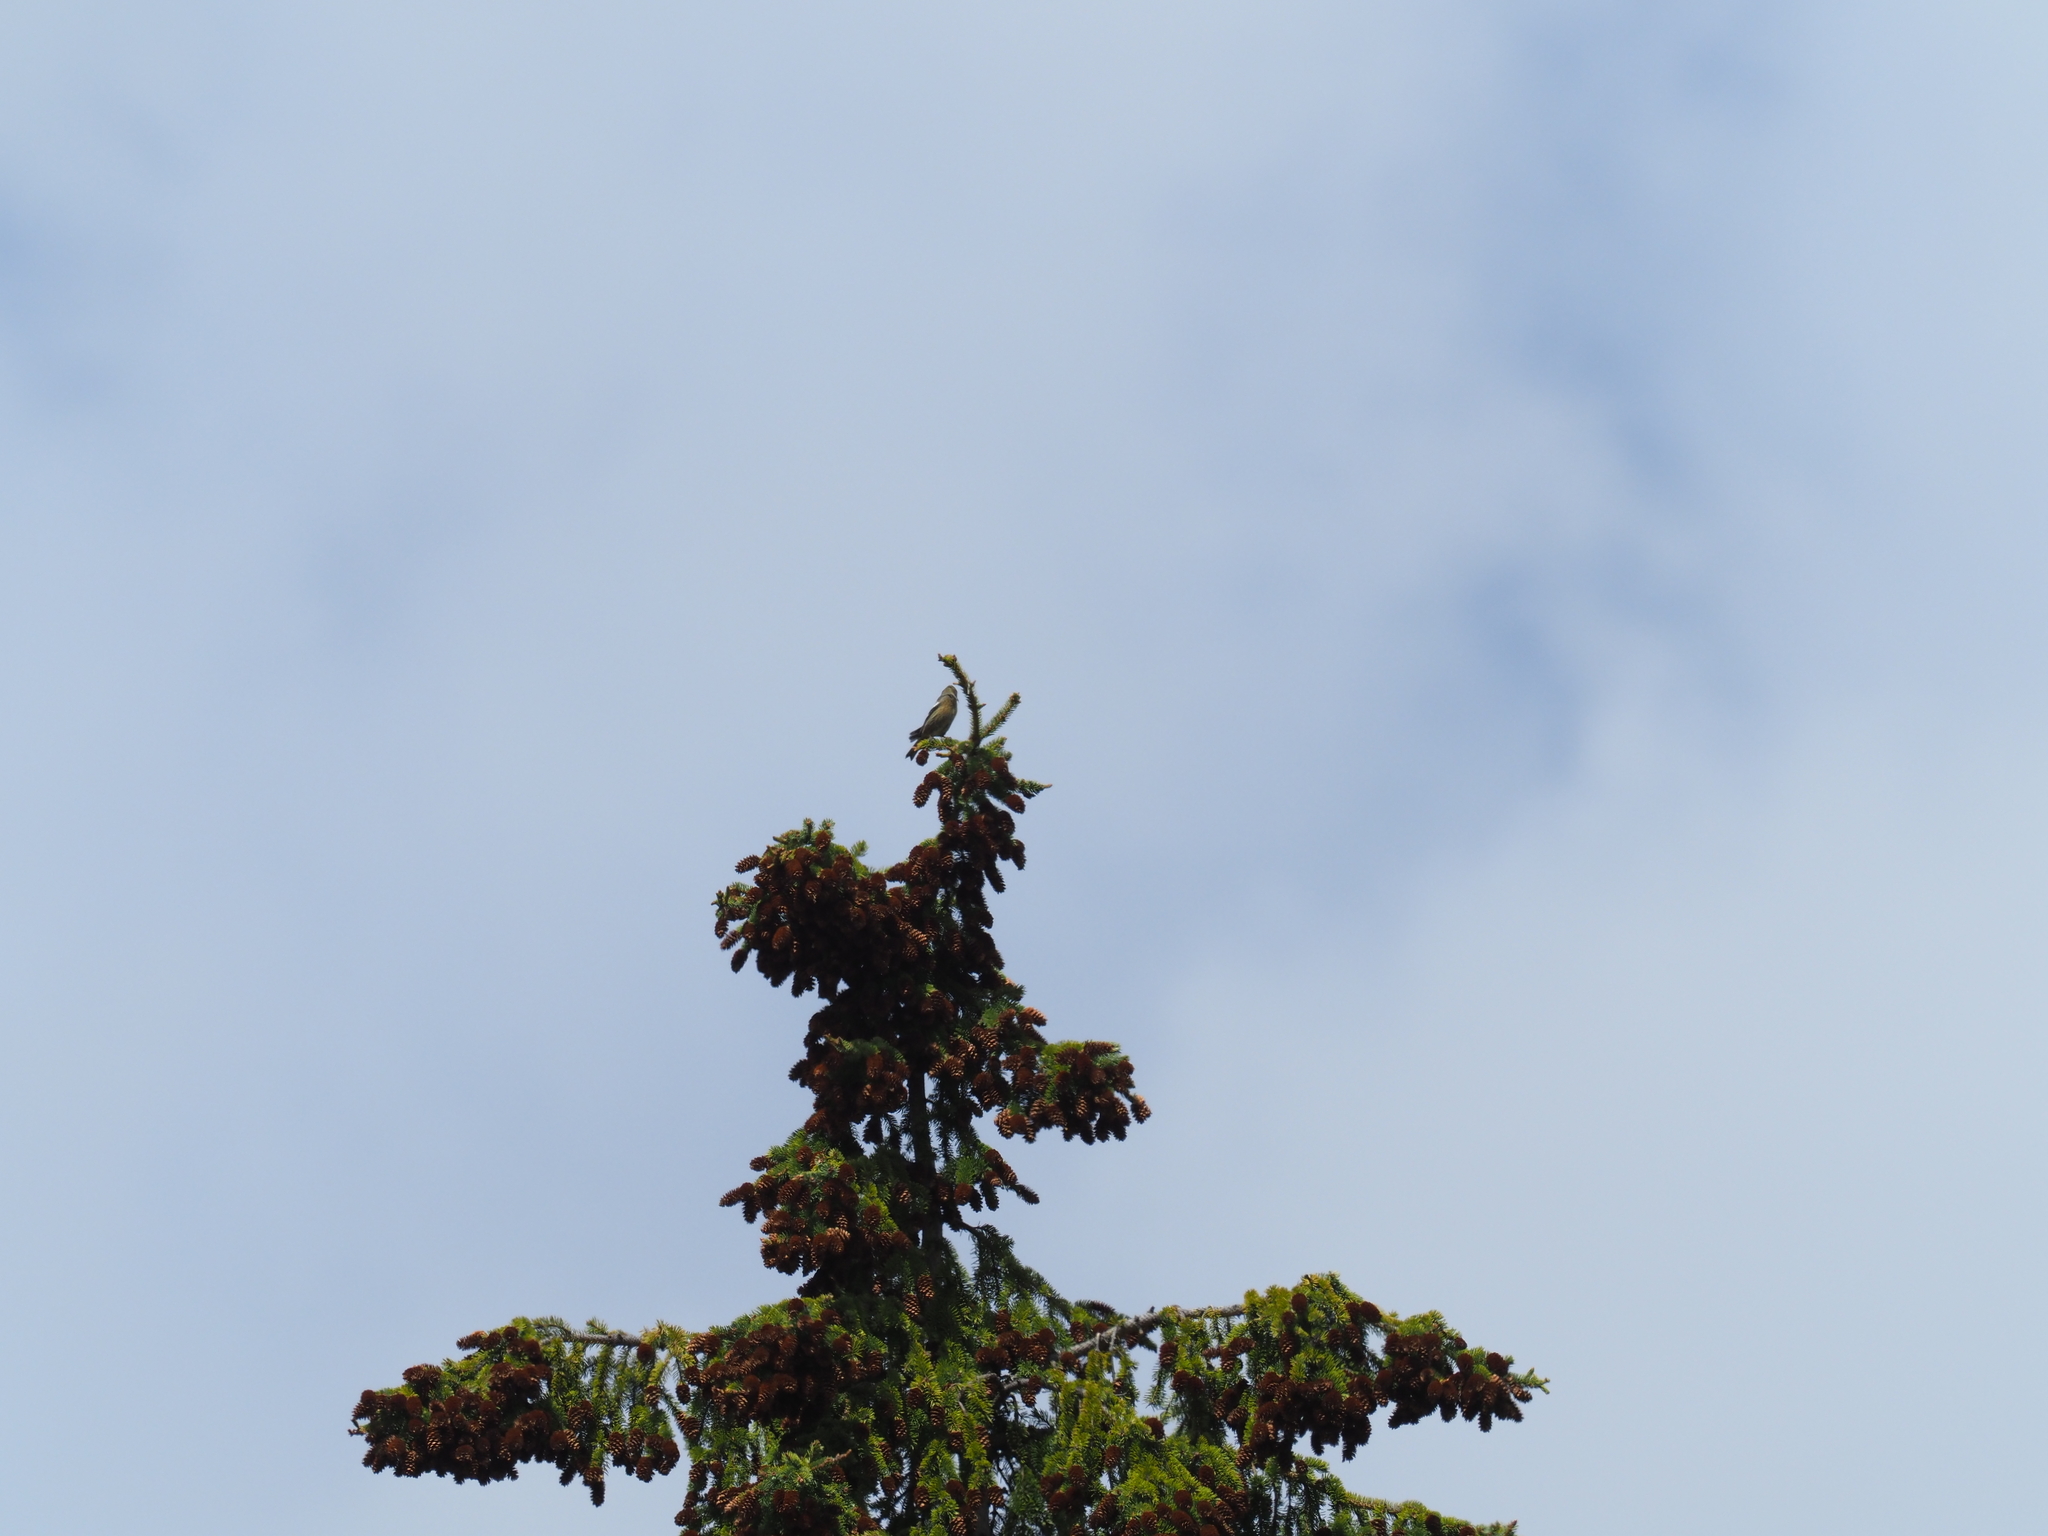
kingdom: Animalia
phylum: Chordata
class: Aves
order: Passeriformes
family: Fringillidae
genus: Loxia
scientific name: Loxia leucoptera
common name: Two-barred crossbill
